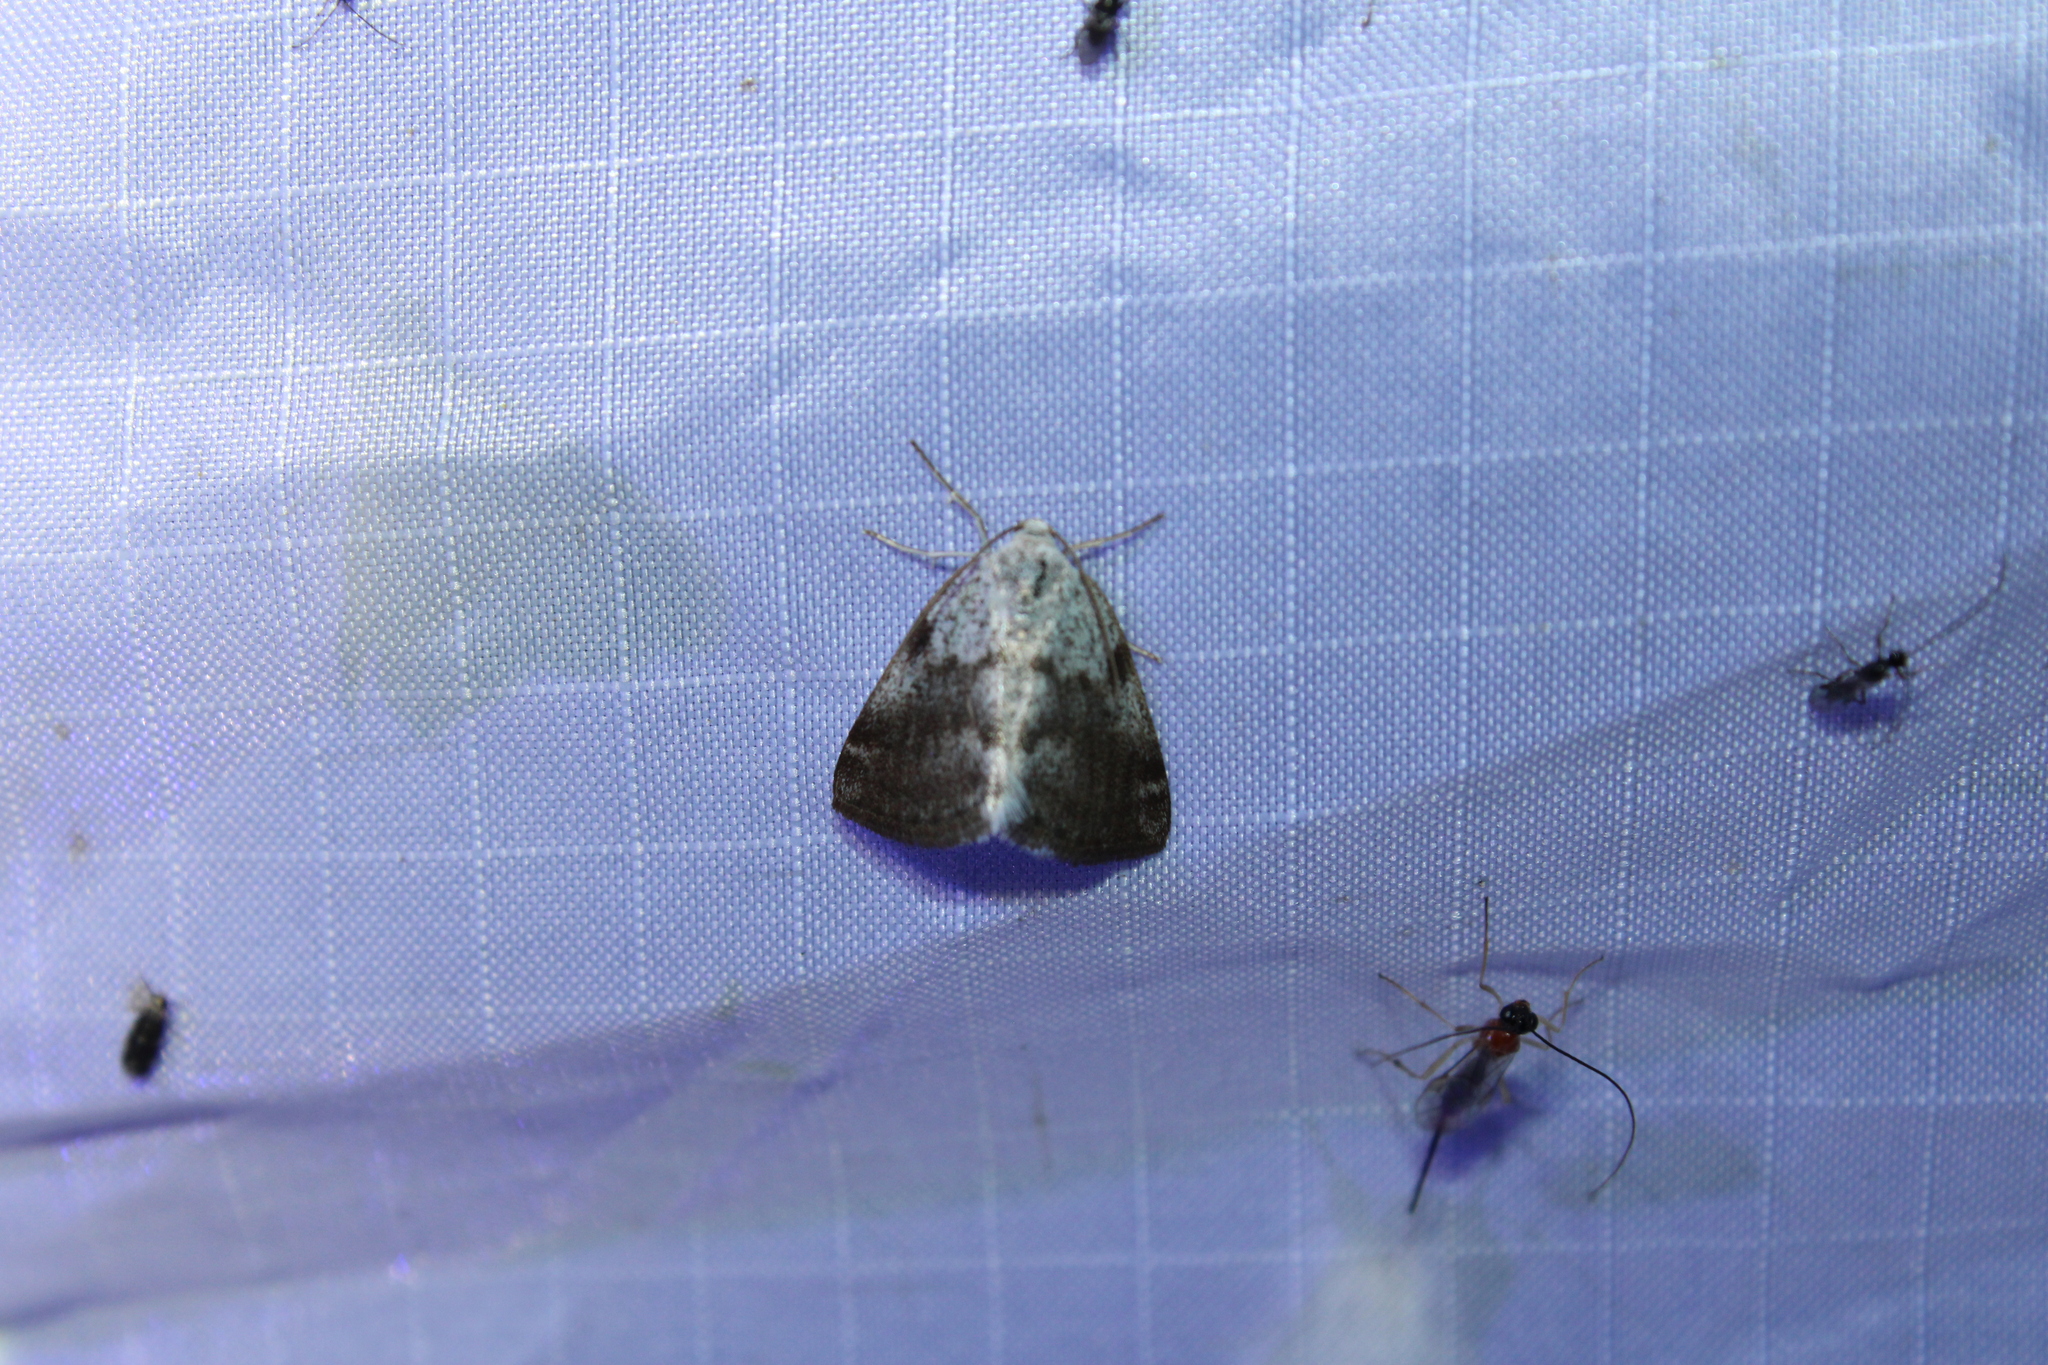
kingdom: Animalia
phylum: Arthropoda
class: Insecta
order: Lepidoptera
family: Geometridae
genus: Lomographa
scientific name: Lomographa semiclarata
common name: Bluish spring moth
